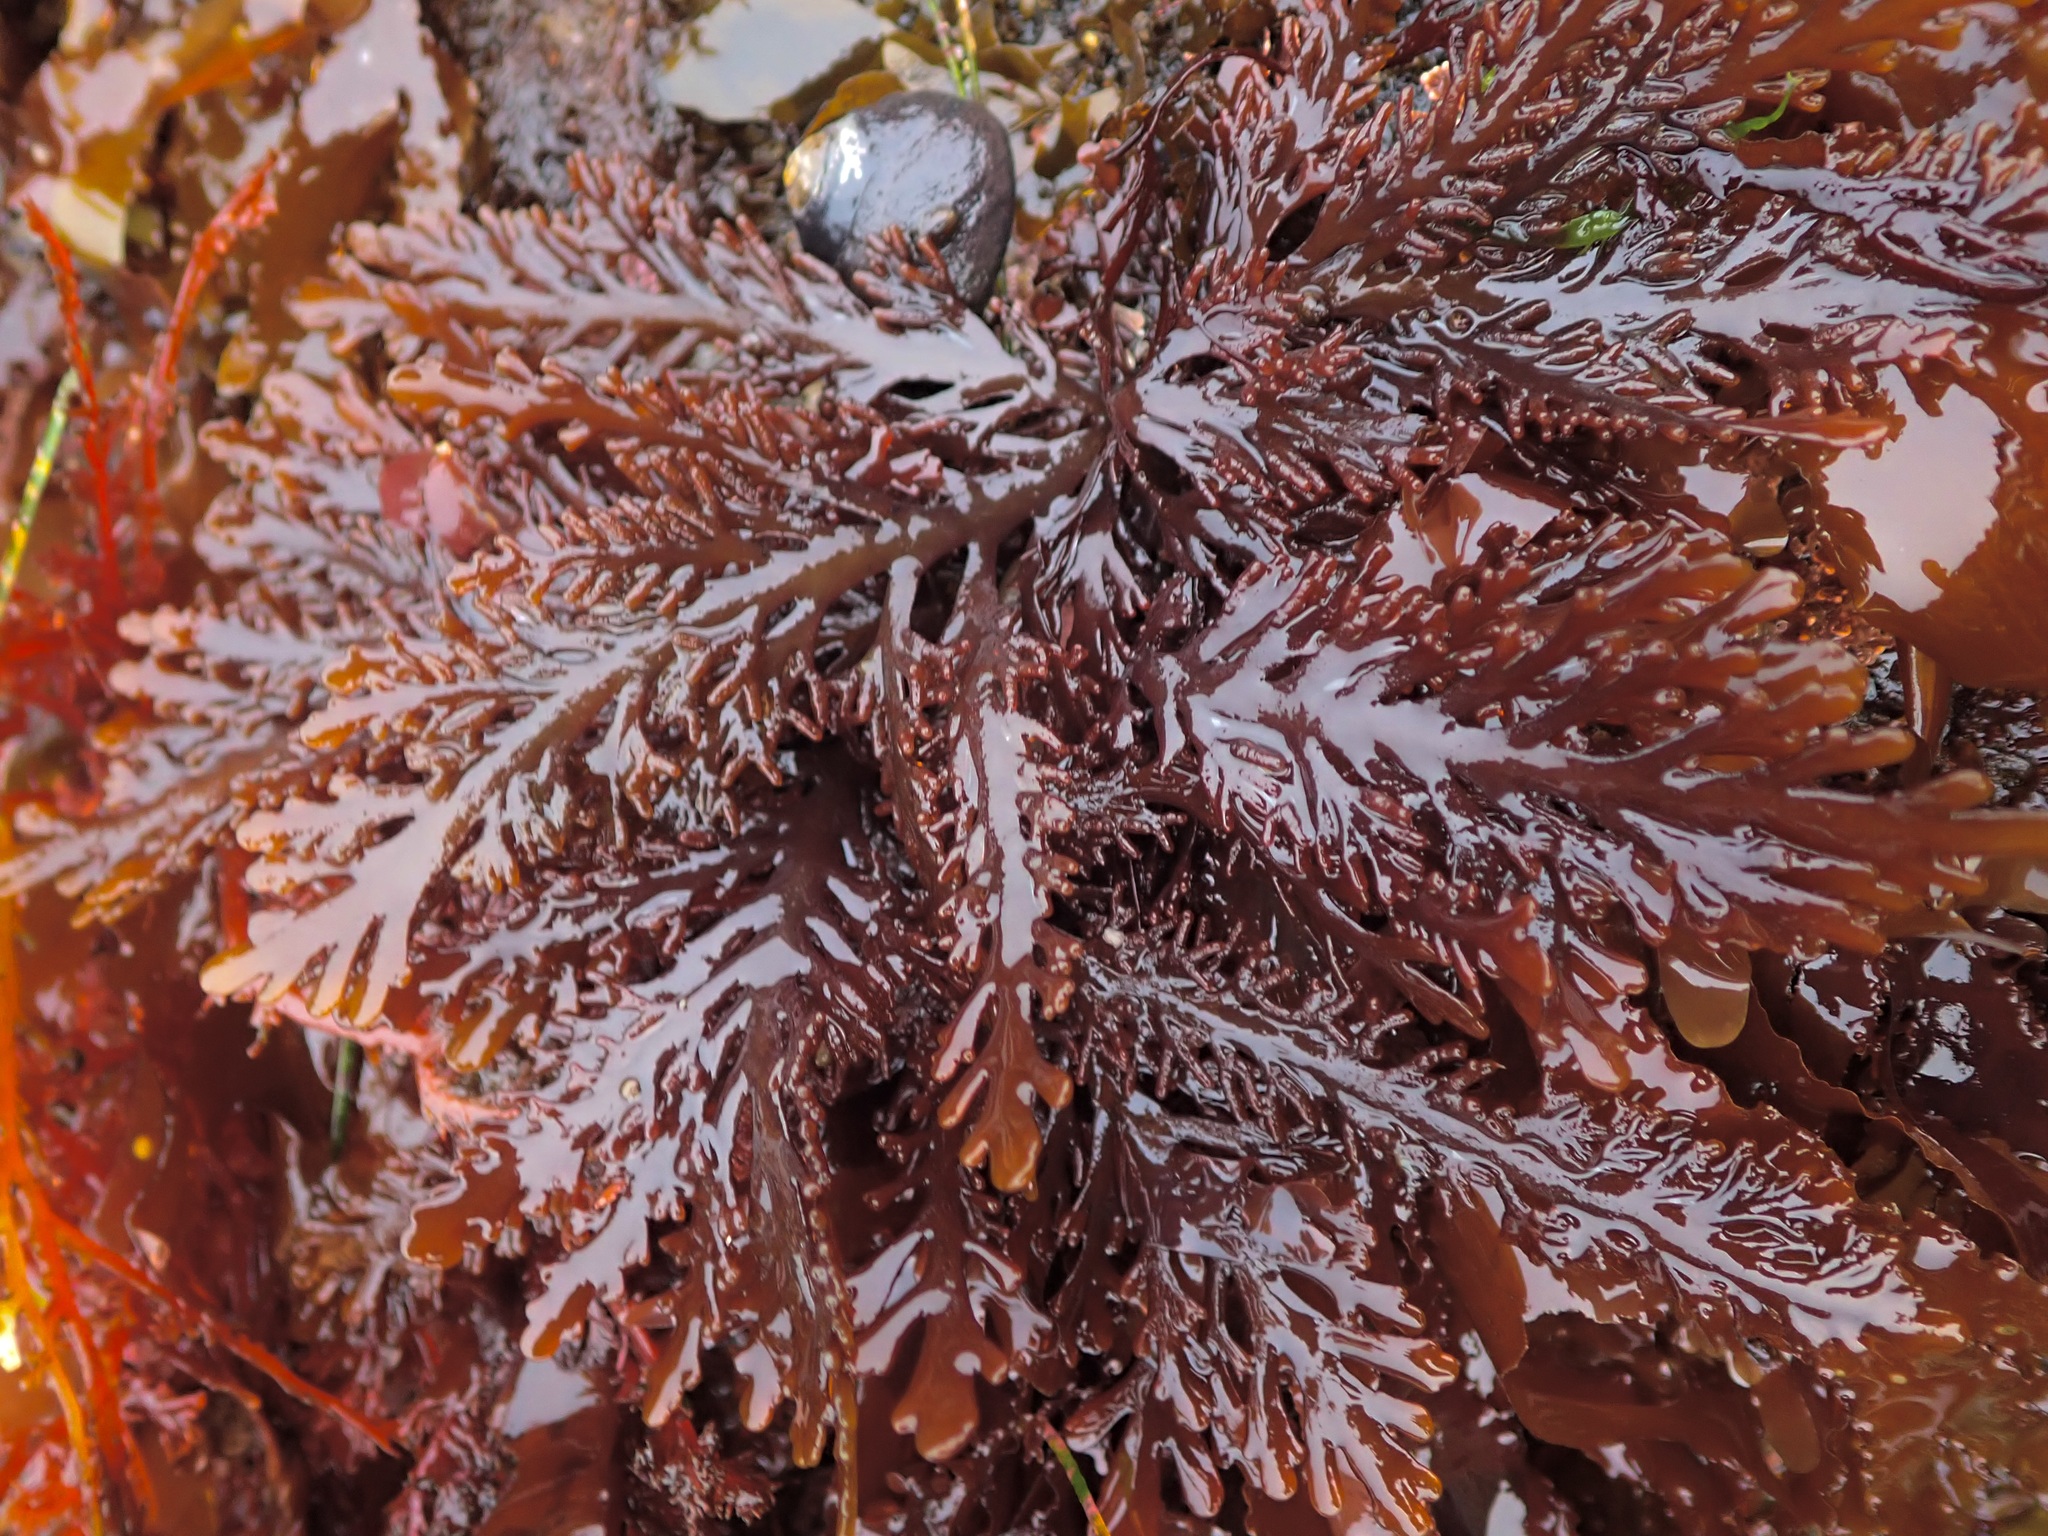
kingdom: Plantae
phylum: Rhodophyta
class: Florideophyceae
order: Ceramiales
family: Rhodomelaceae
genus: Osmundea
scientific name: Osmundea spectabilis
